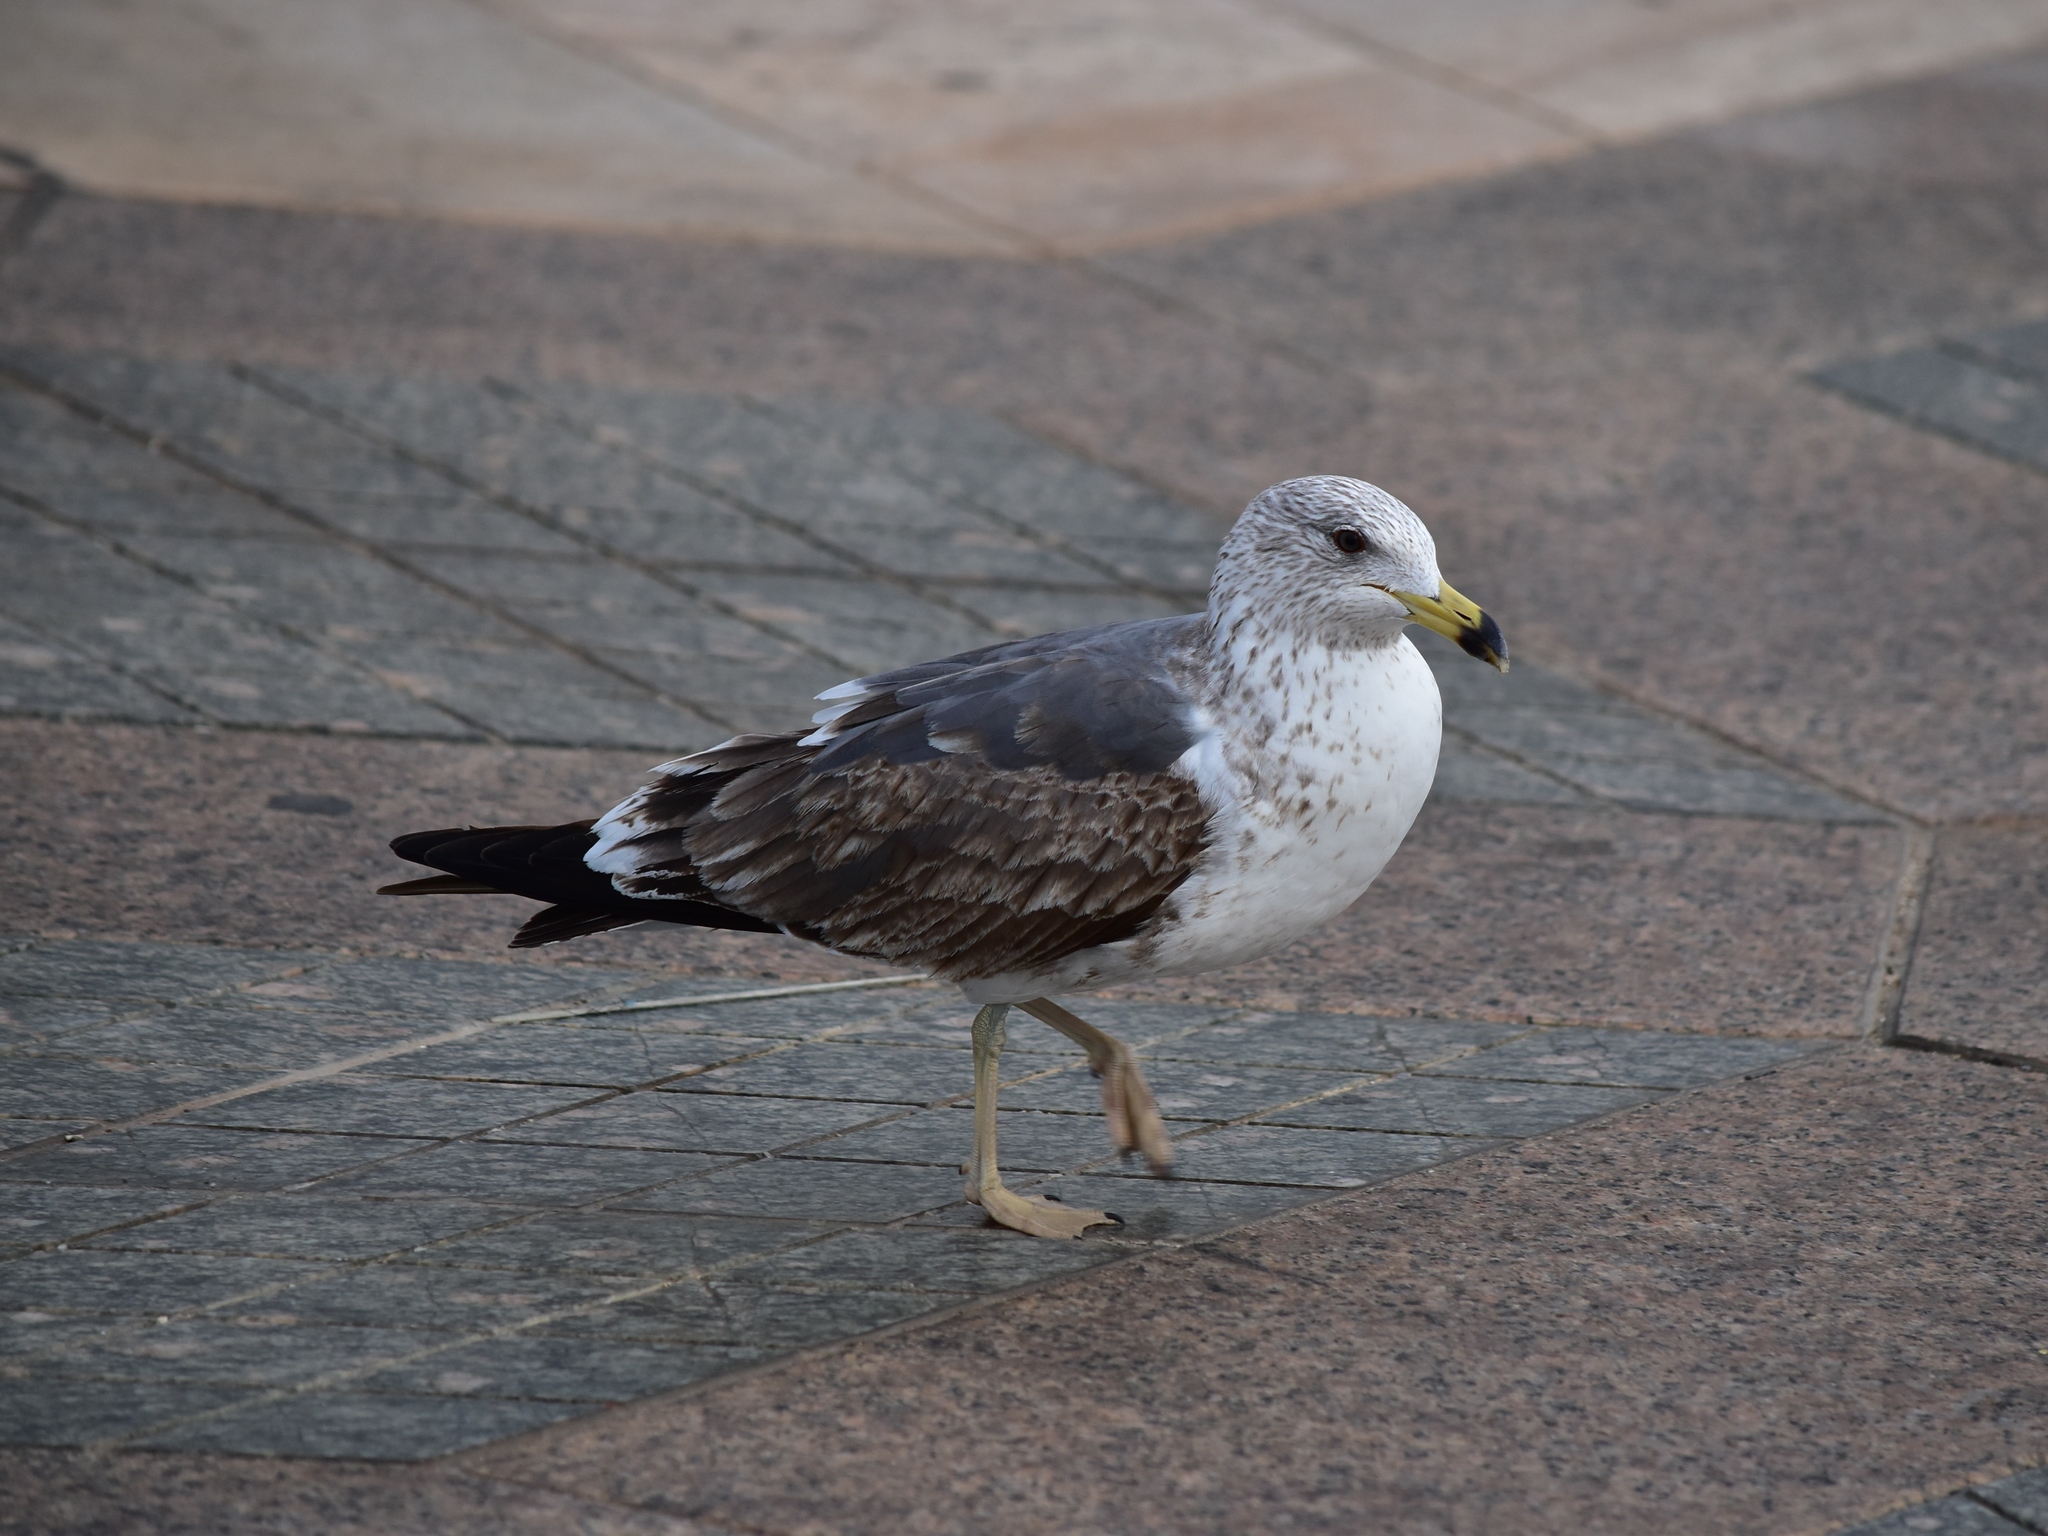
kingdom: Animalia
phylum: Chordata
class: Aves
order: Charadriiformes
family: Laridae
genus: Larus
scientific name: Larus fuscus
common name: Lesser black-backed gull
